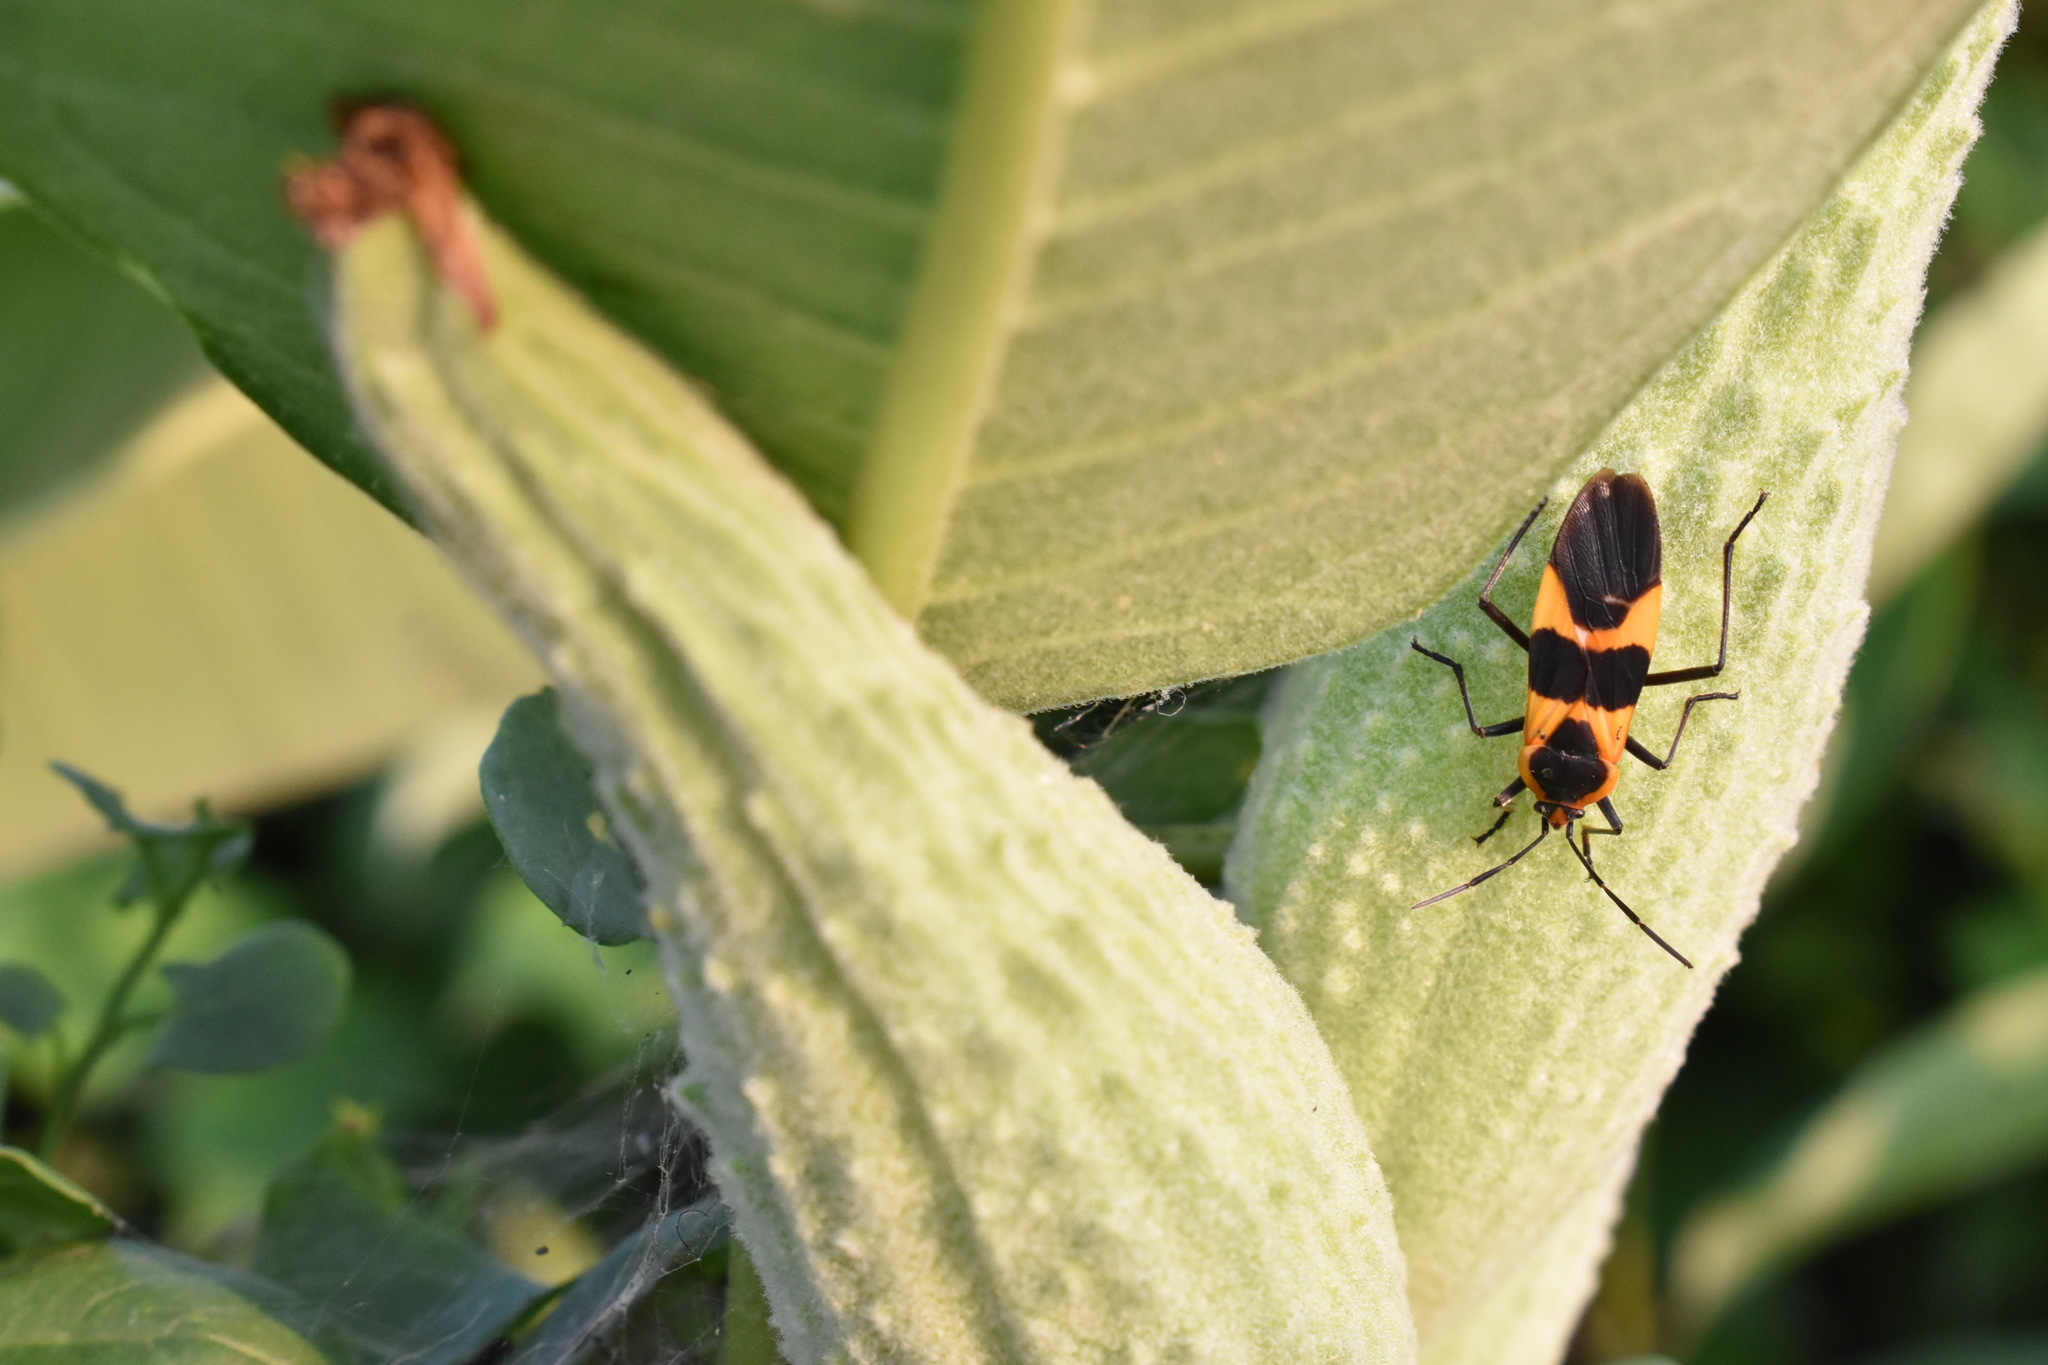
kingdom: Animalia
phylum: Arthropoda
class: Insecta
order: Hemiptera
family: Lygaeidae
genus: Oncopeltus
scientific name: Oncopeltus fasciatus
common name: Large milkweed bug
